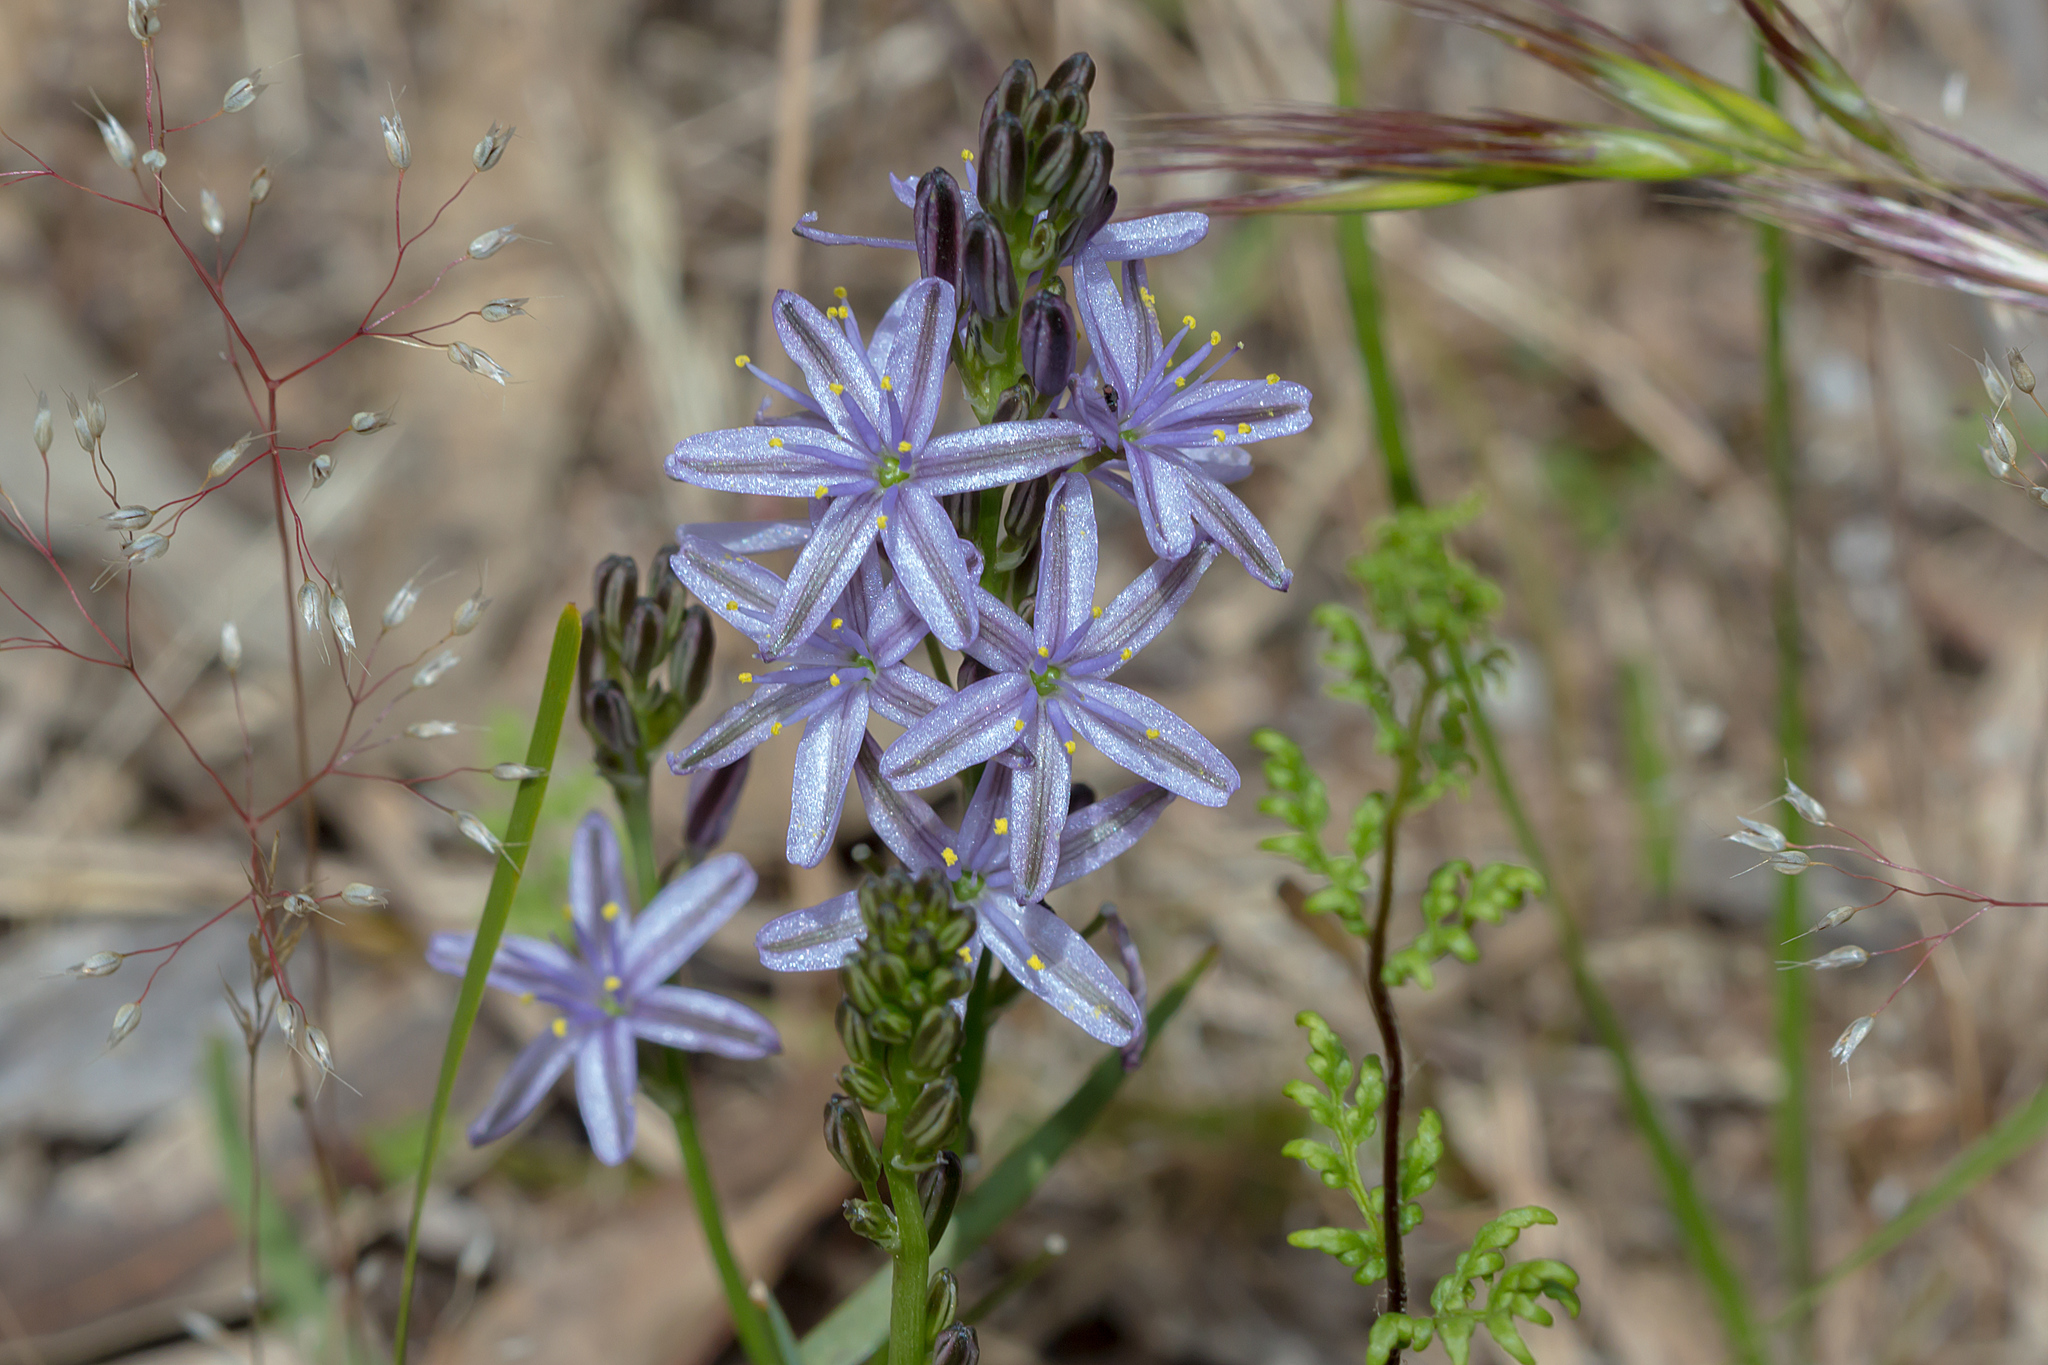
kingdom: Plantae
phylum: Tracheophyta
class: Liliopsida
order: Asparagales
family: Asphodelaceae
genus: Caesia
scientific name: Caesia calliantha
